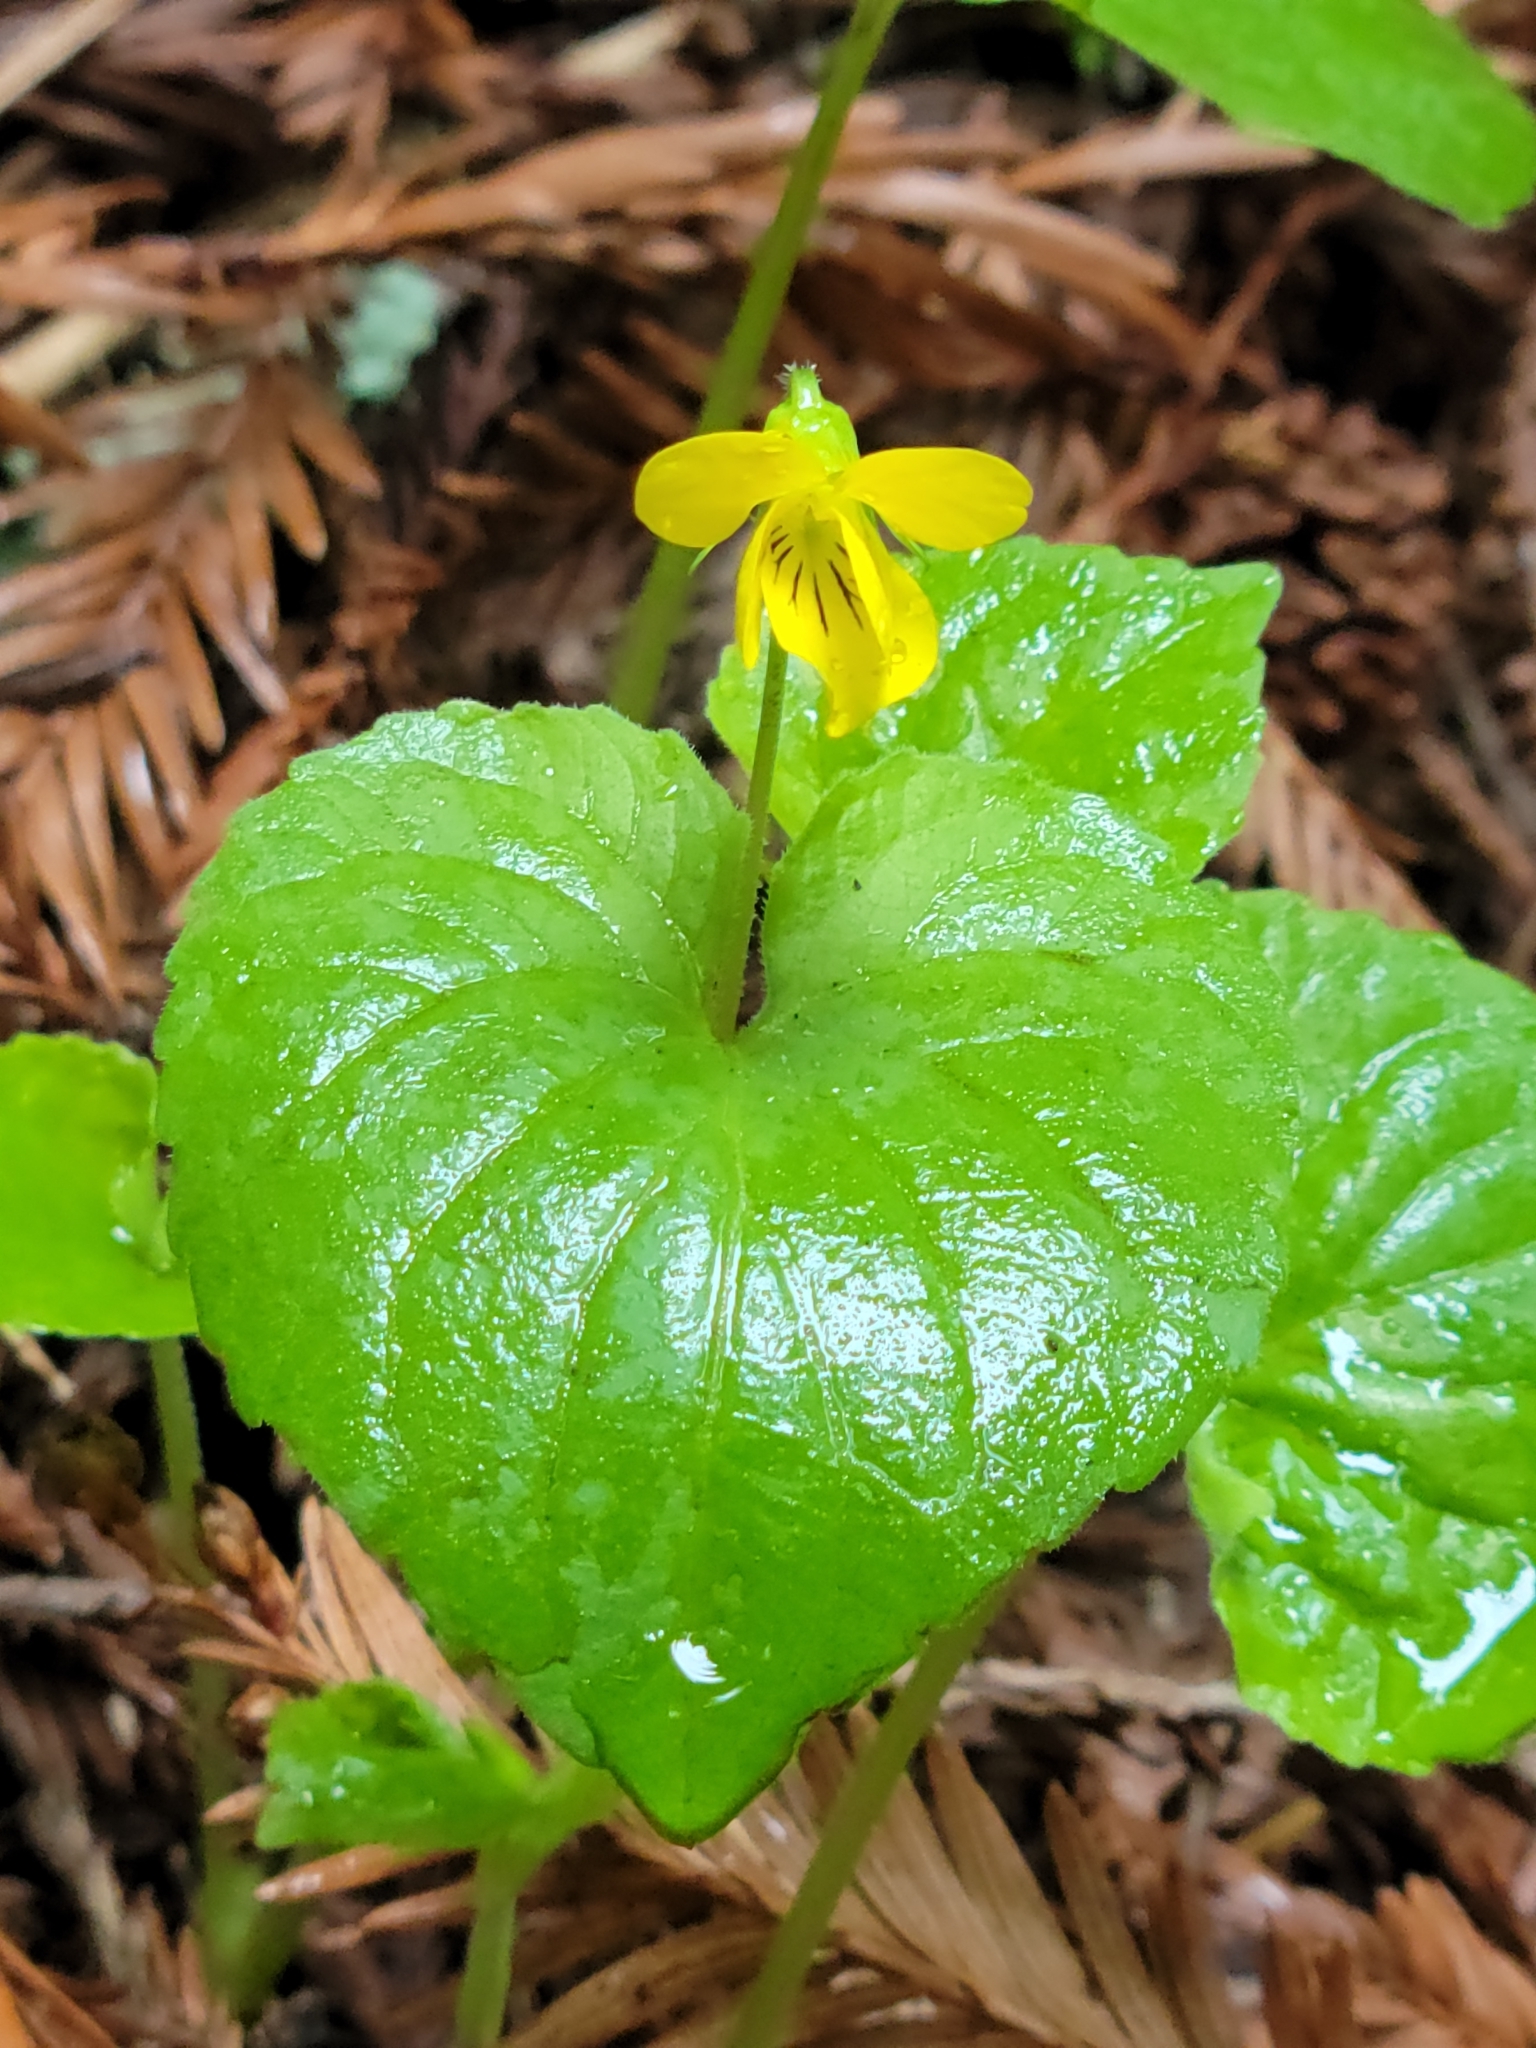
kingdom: Plantae
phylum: Tracheophyta
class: Magnoliopsida
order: Malpighiales
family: Violaceae
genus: Viola
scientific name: Viola glabella
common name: Stream violet
